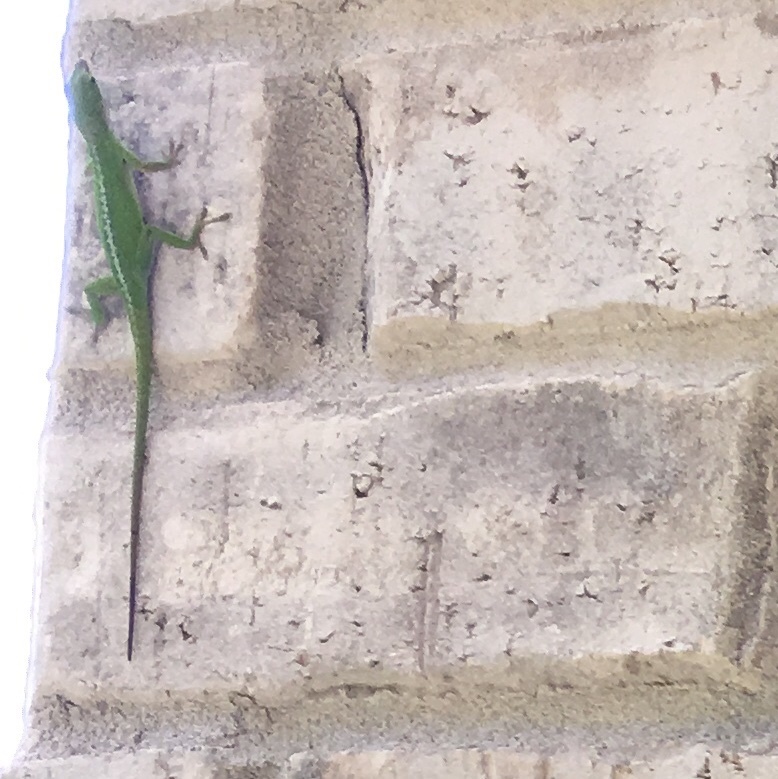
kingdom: Animalia
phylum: Chordata
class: Squamata
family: Dactyloidae
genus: Anolis
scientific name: Anolis carolinensis
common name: Green anole
